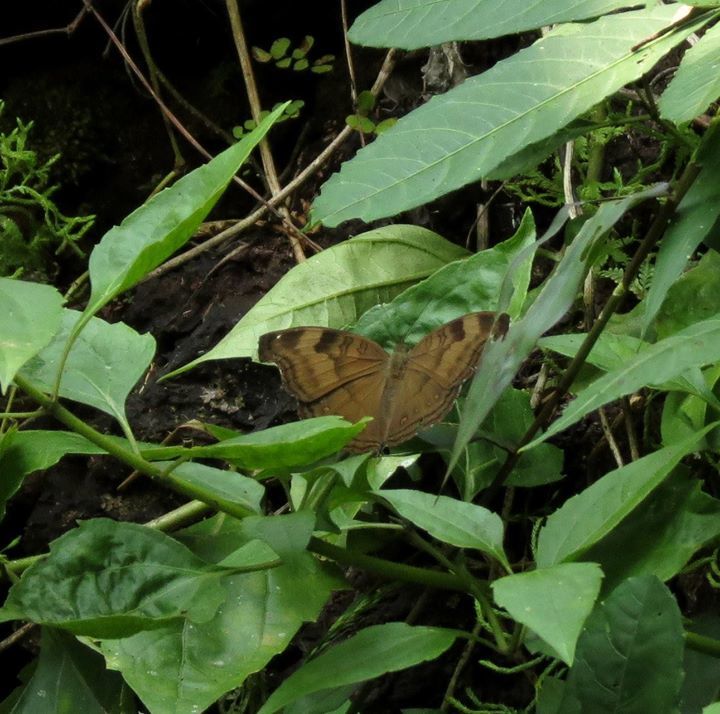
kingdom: Animalia
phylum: Arthropoda
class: Insecta
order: Lepidoptera
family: Nymphalidae
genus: Junonia
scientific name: Junonia iphita
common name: Chocolate pansy
